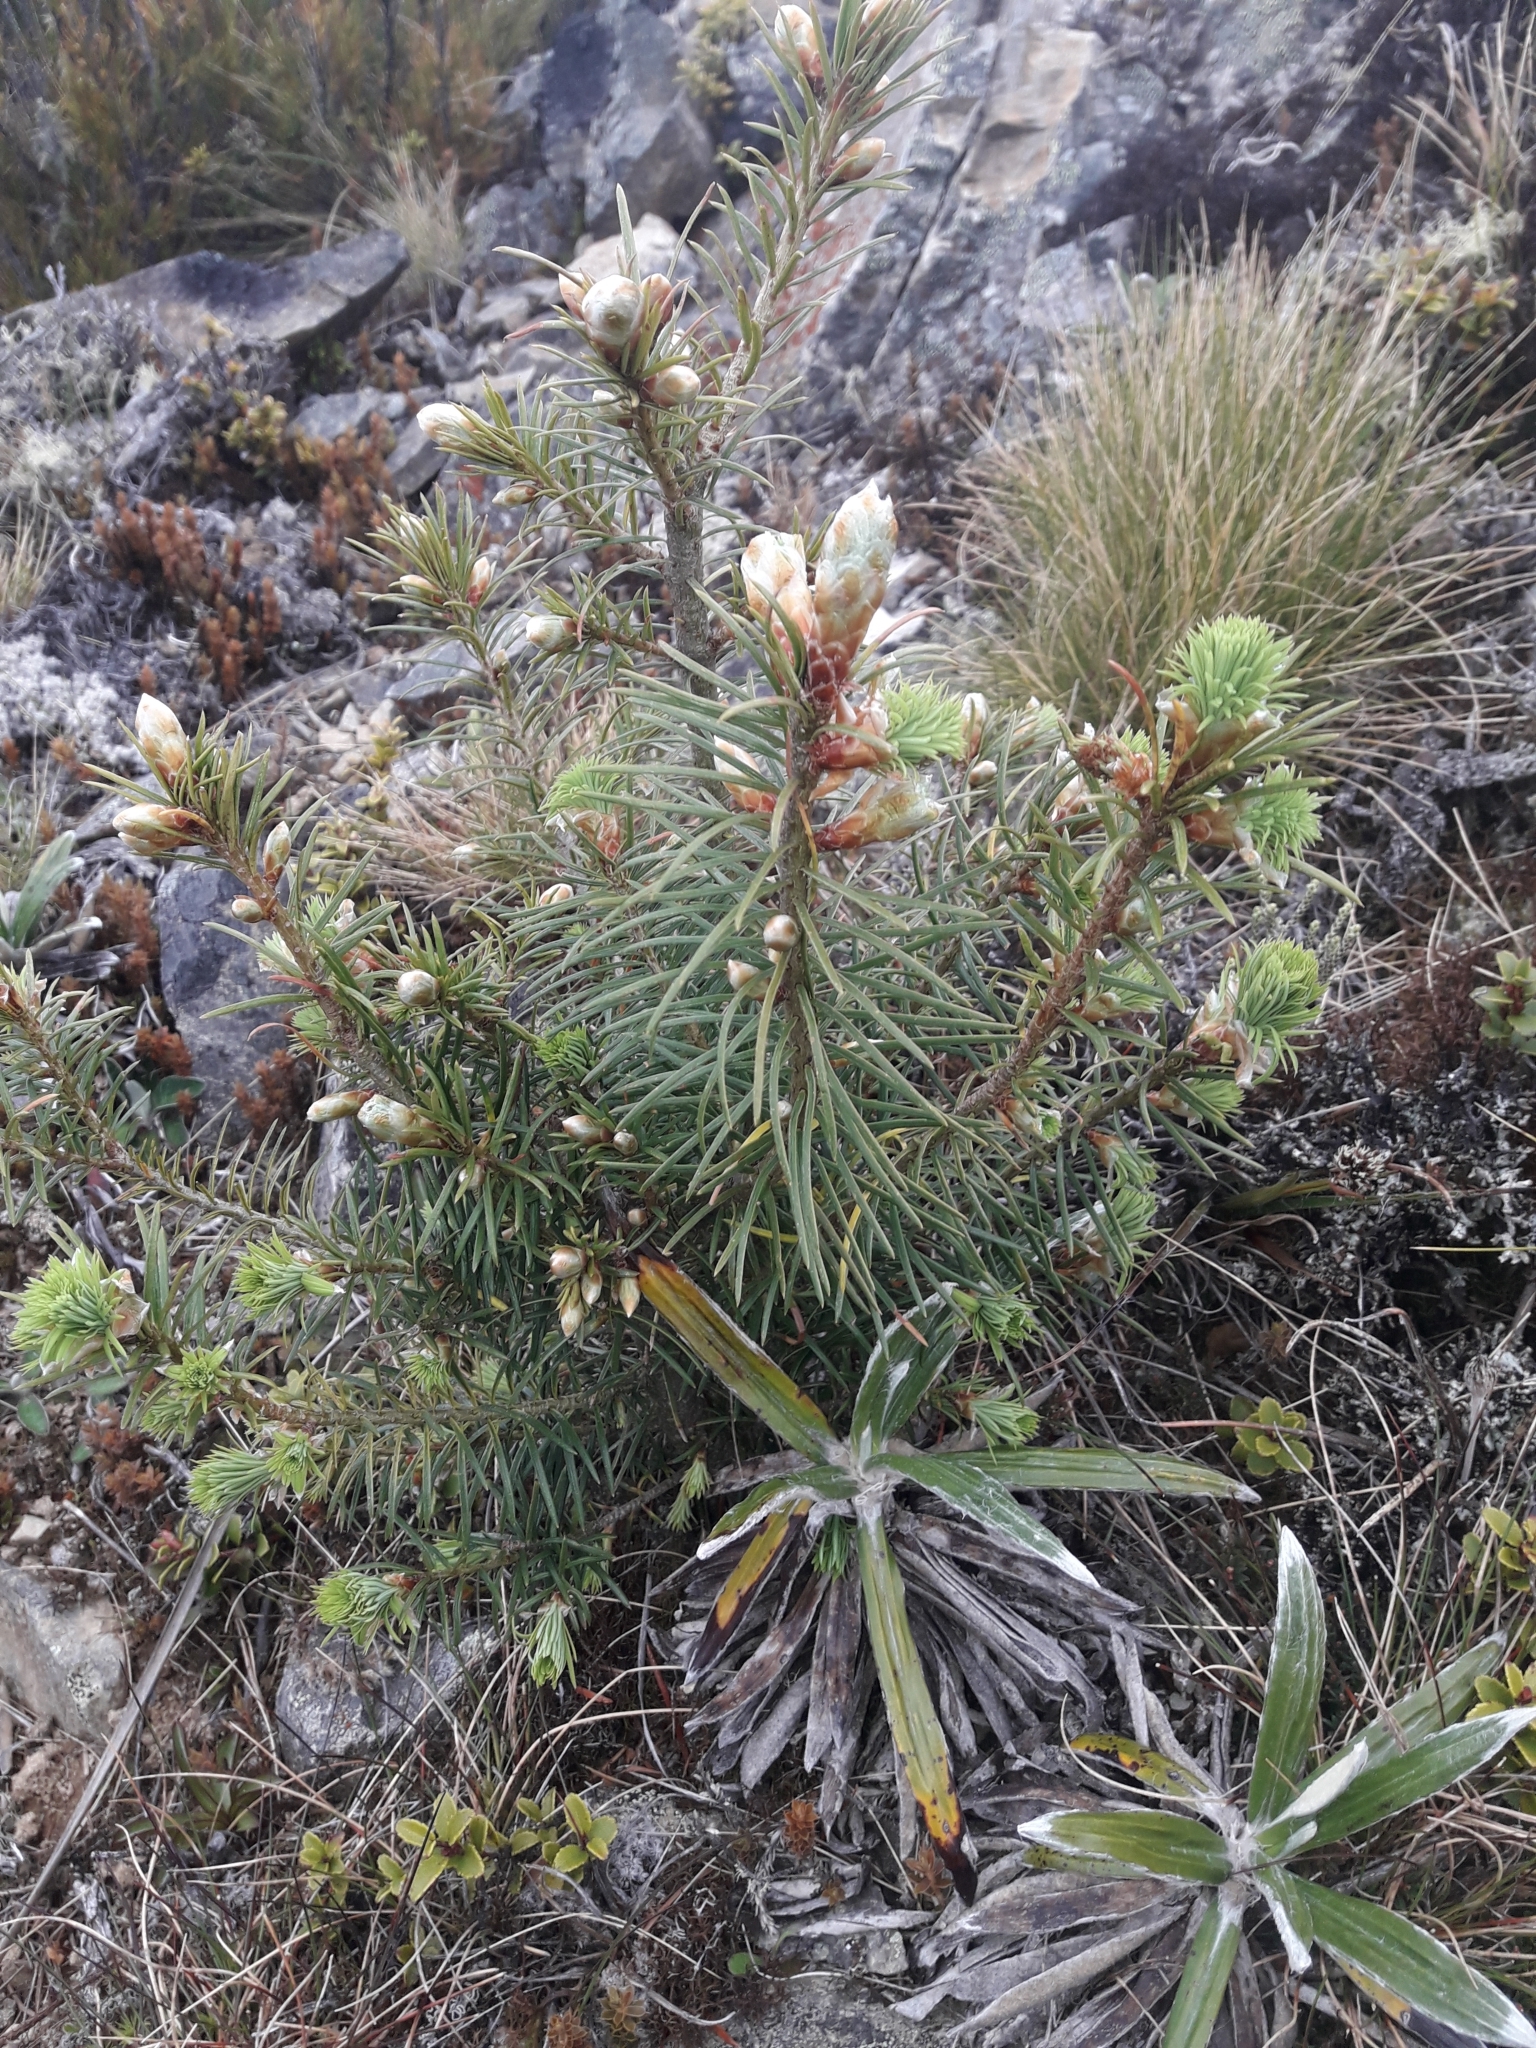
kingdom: Plantae
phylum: Tracheophyta
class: Pinopsida
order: Pinales
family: Pinaceae
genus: Pseudotsuga
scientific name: Pseudotsuga menziesii
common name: Douglas fir
